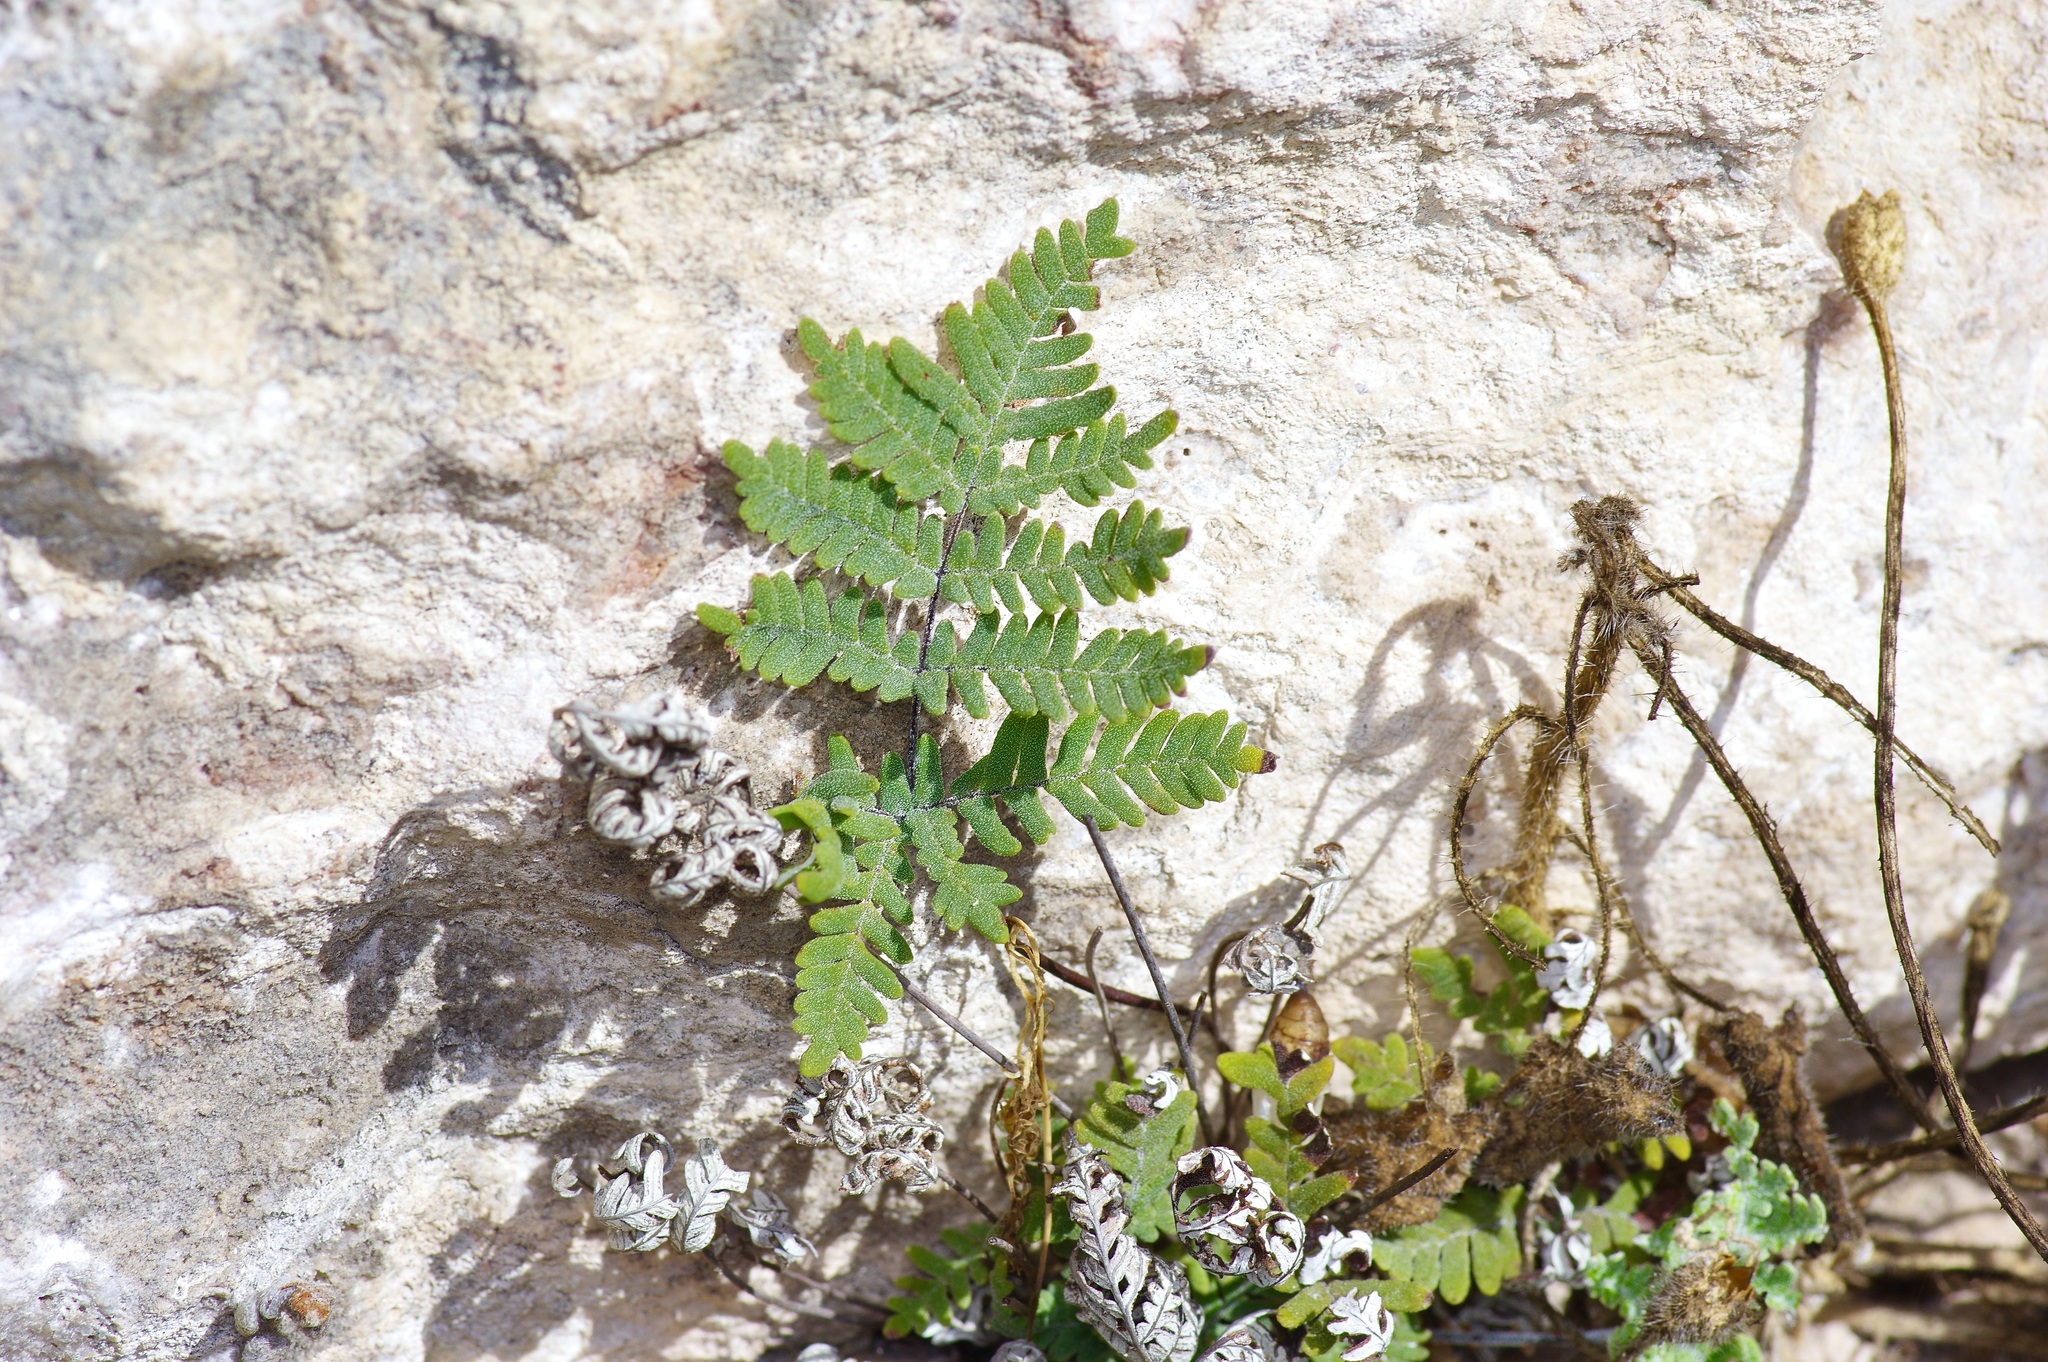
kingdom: Plantae
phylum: Tracheophyta
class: Polypodiopsida
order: Polypodiales
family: Pteridaceae
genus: Notholaena
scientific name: Notholaena candida
